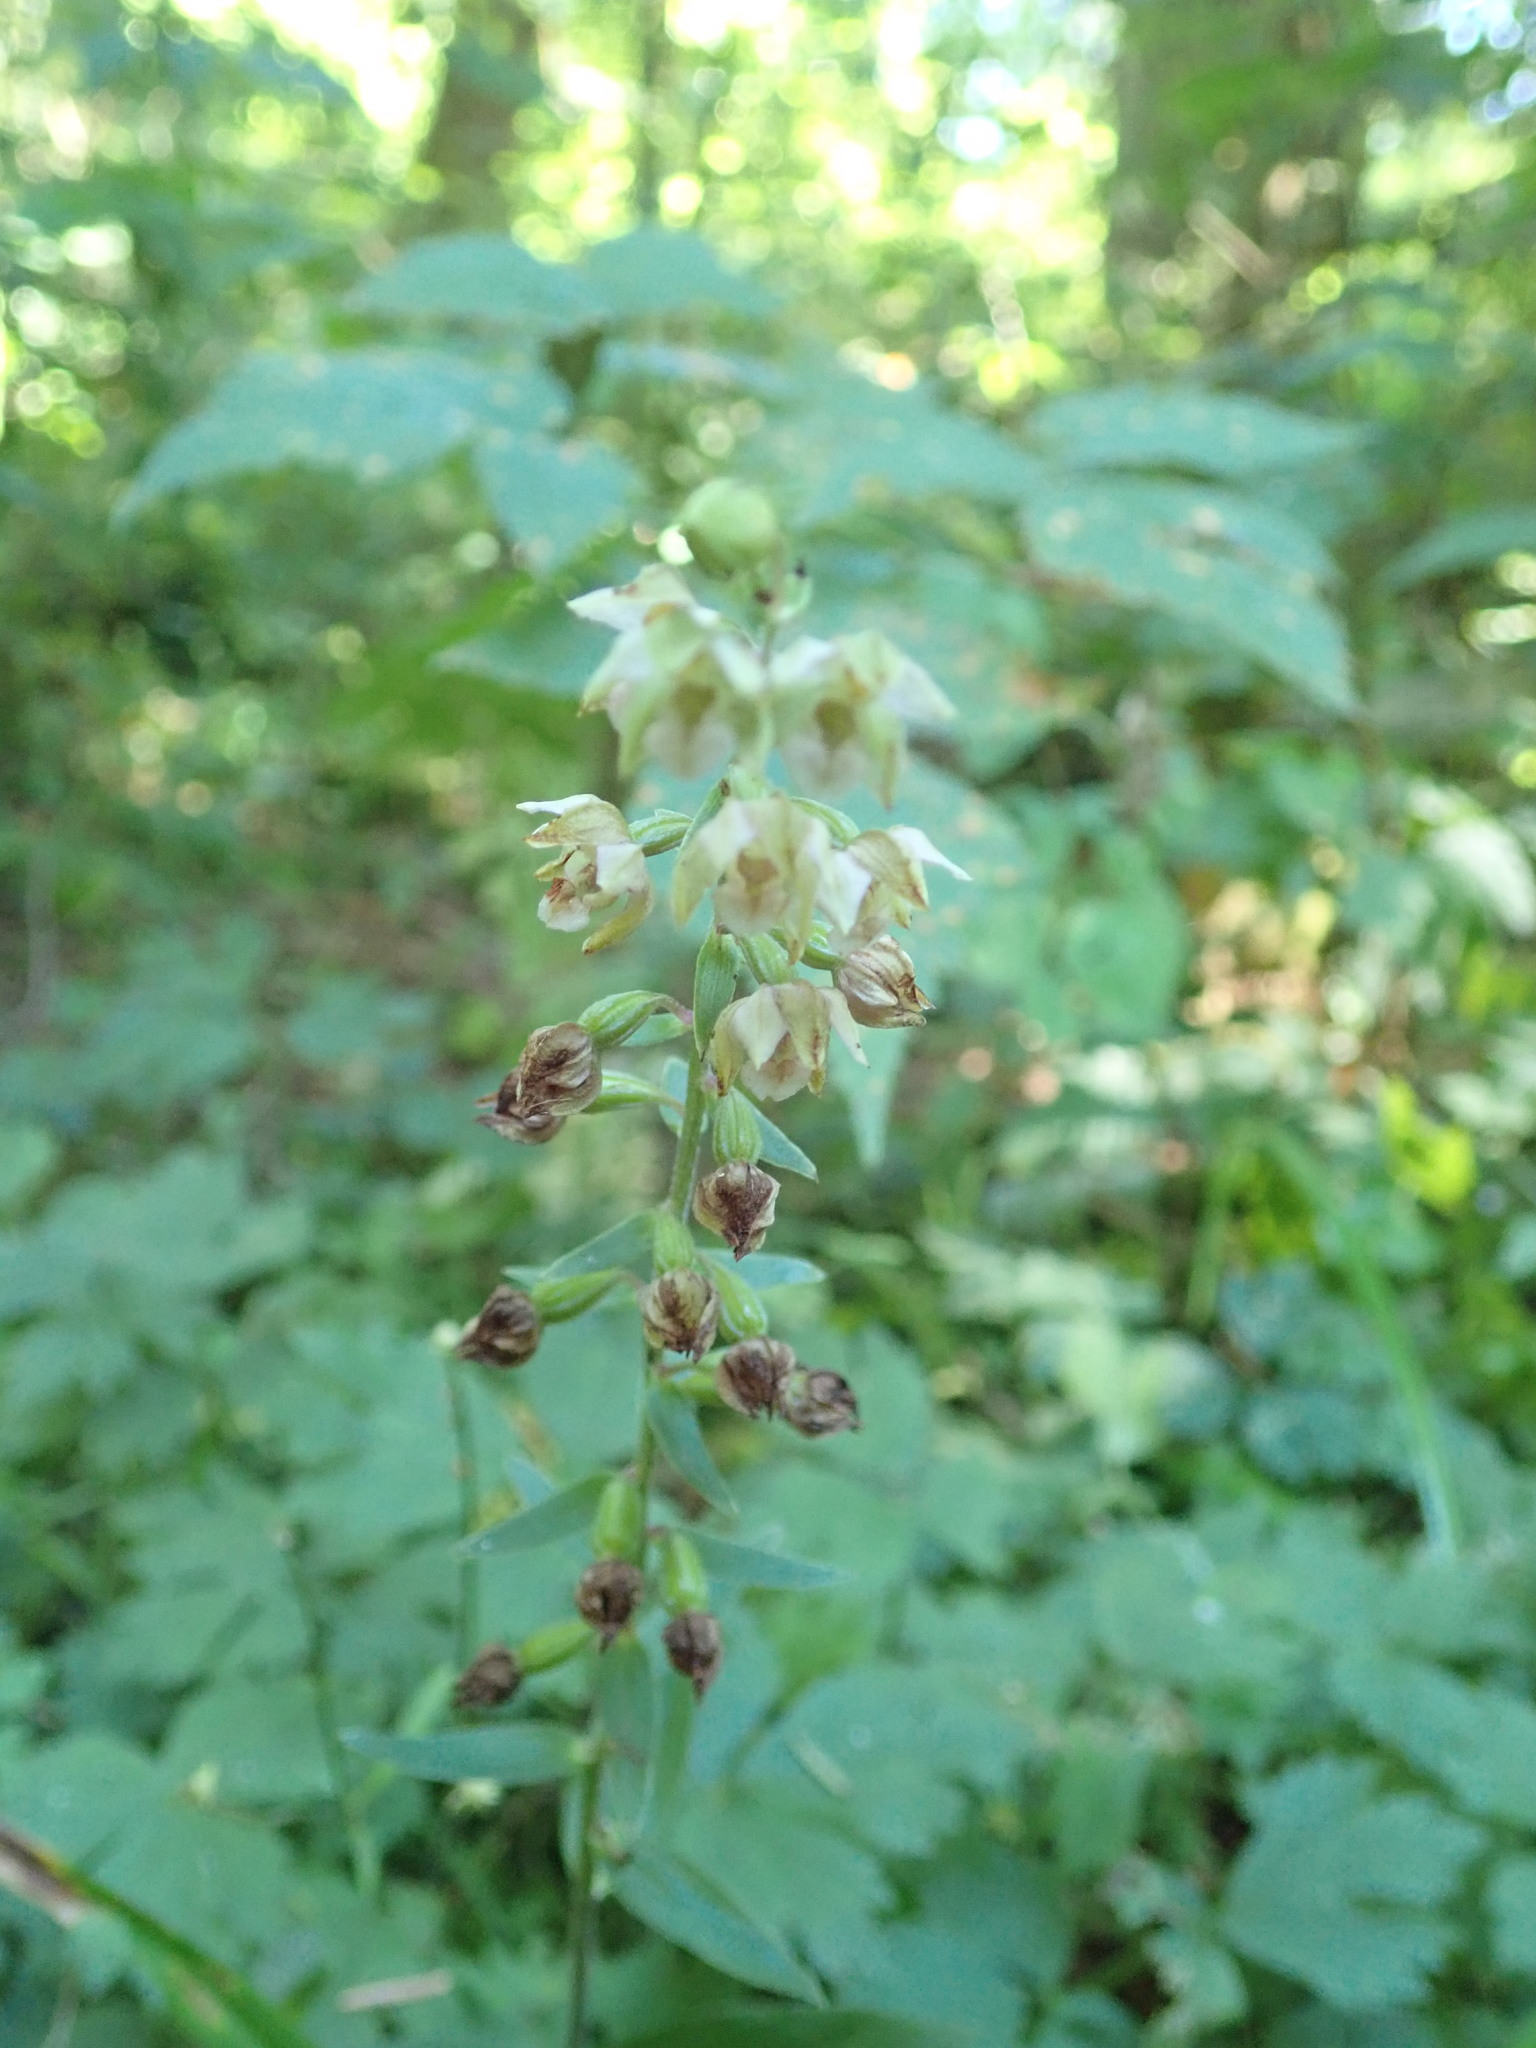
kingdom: Plantae
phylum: Tracheophyta
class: Liliopsida
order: Asparagales
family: Orchidaceae
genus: Epipactis
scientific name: Epipactis helleborine
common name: Broad-leaved helleborine
